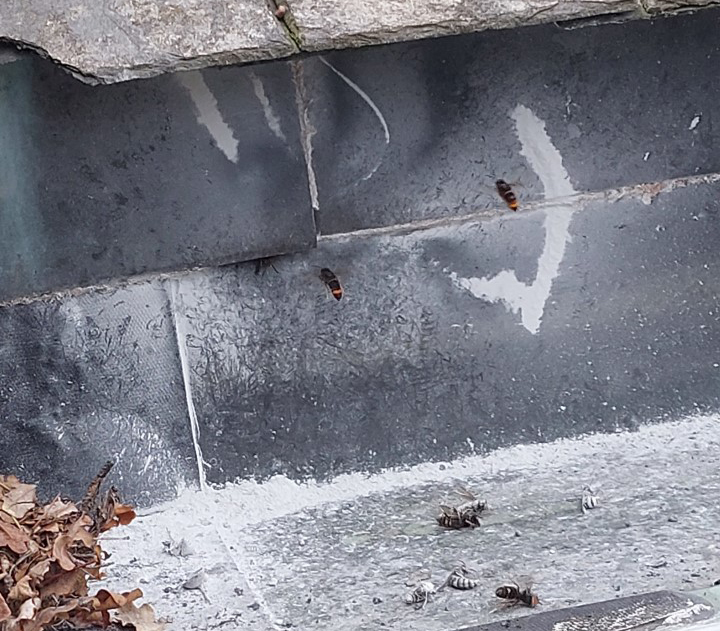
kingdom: Animalia
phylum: Arthropoda
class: Insecta
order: Hymenoptera
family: Vespidae
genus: Vespa
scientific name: Vespa velutina
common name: Asian hornet
